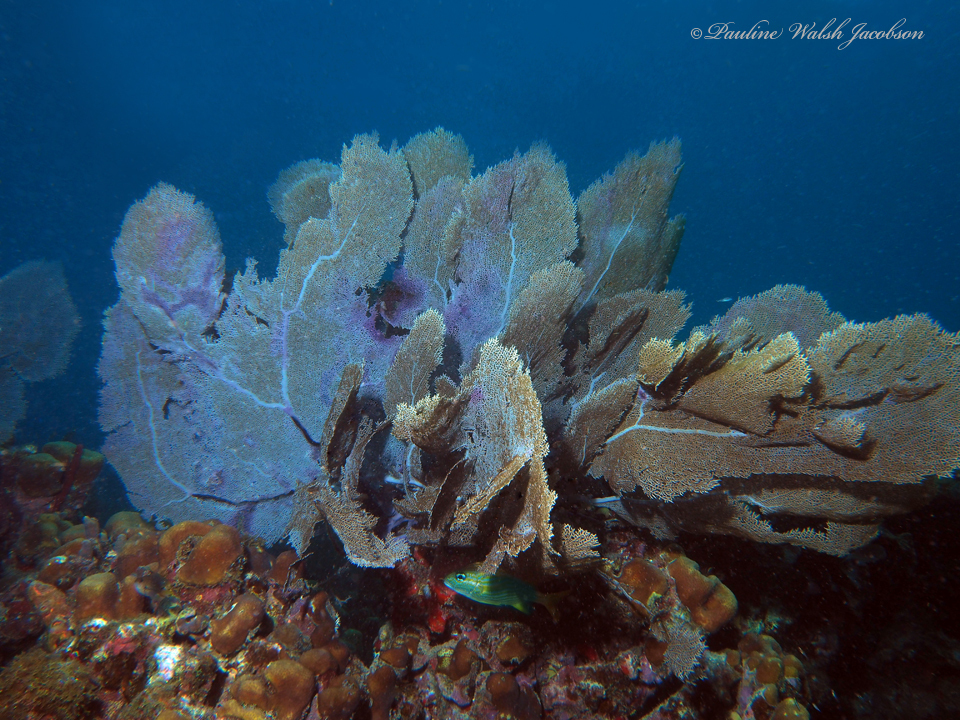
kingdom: Animalia
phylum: Cnidaria
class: Anthozoa
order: Malacalcyonacea
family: Gorgoniidae
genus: Gorgonia
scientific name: Gorgonia ventalina
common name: Common sea fan
